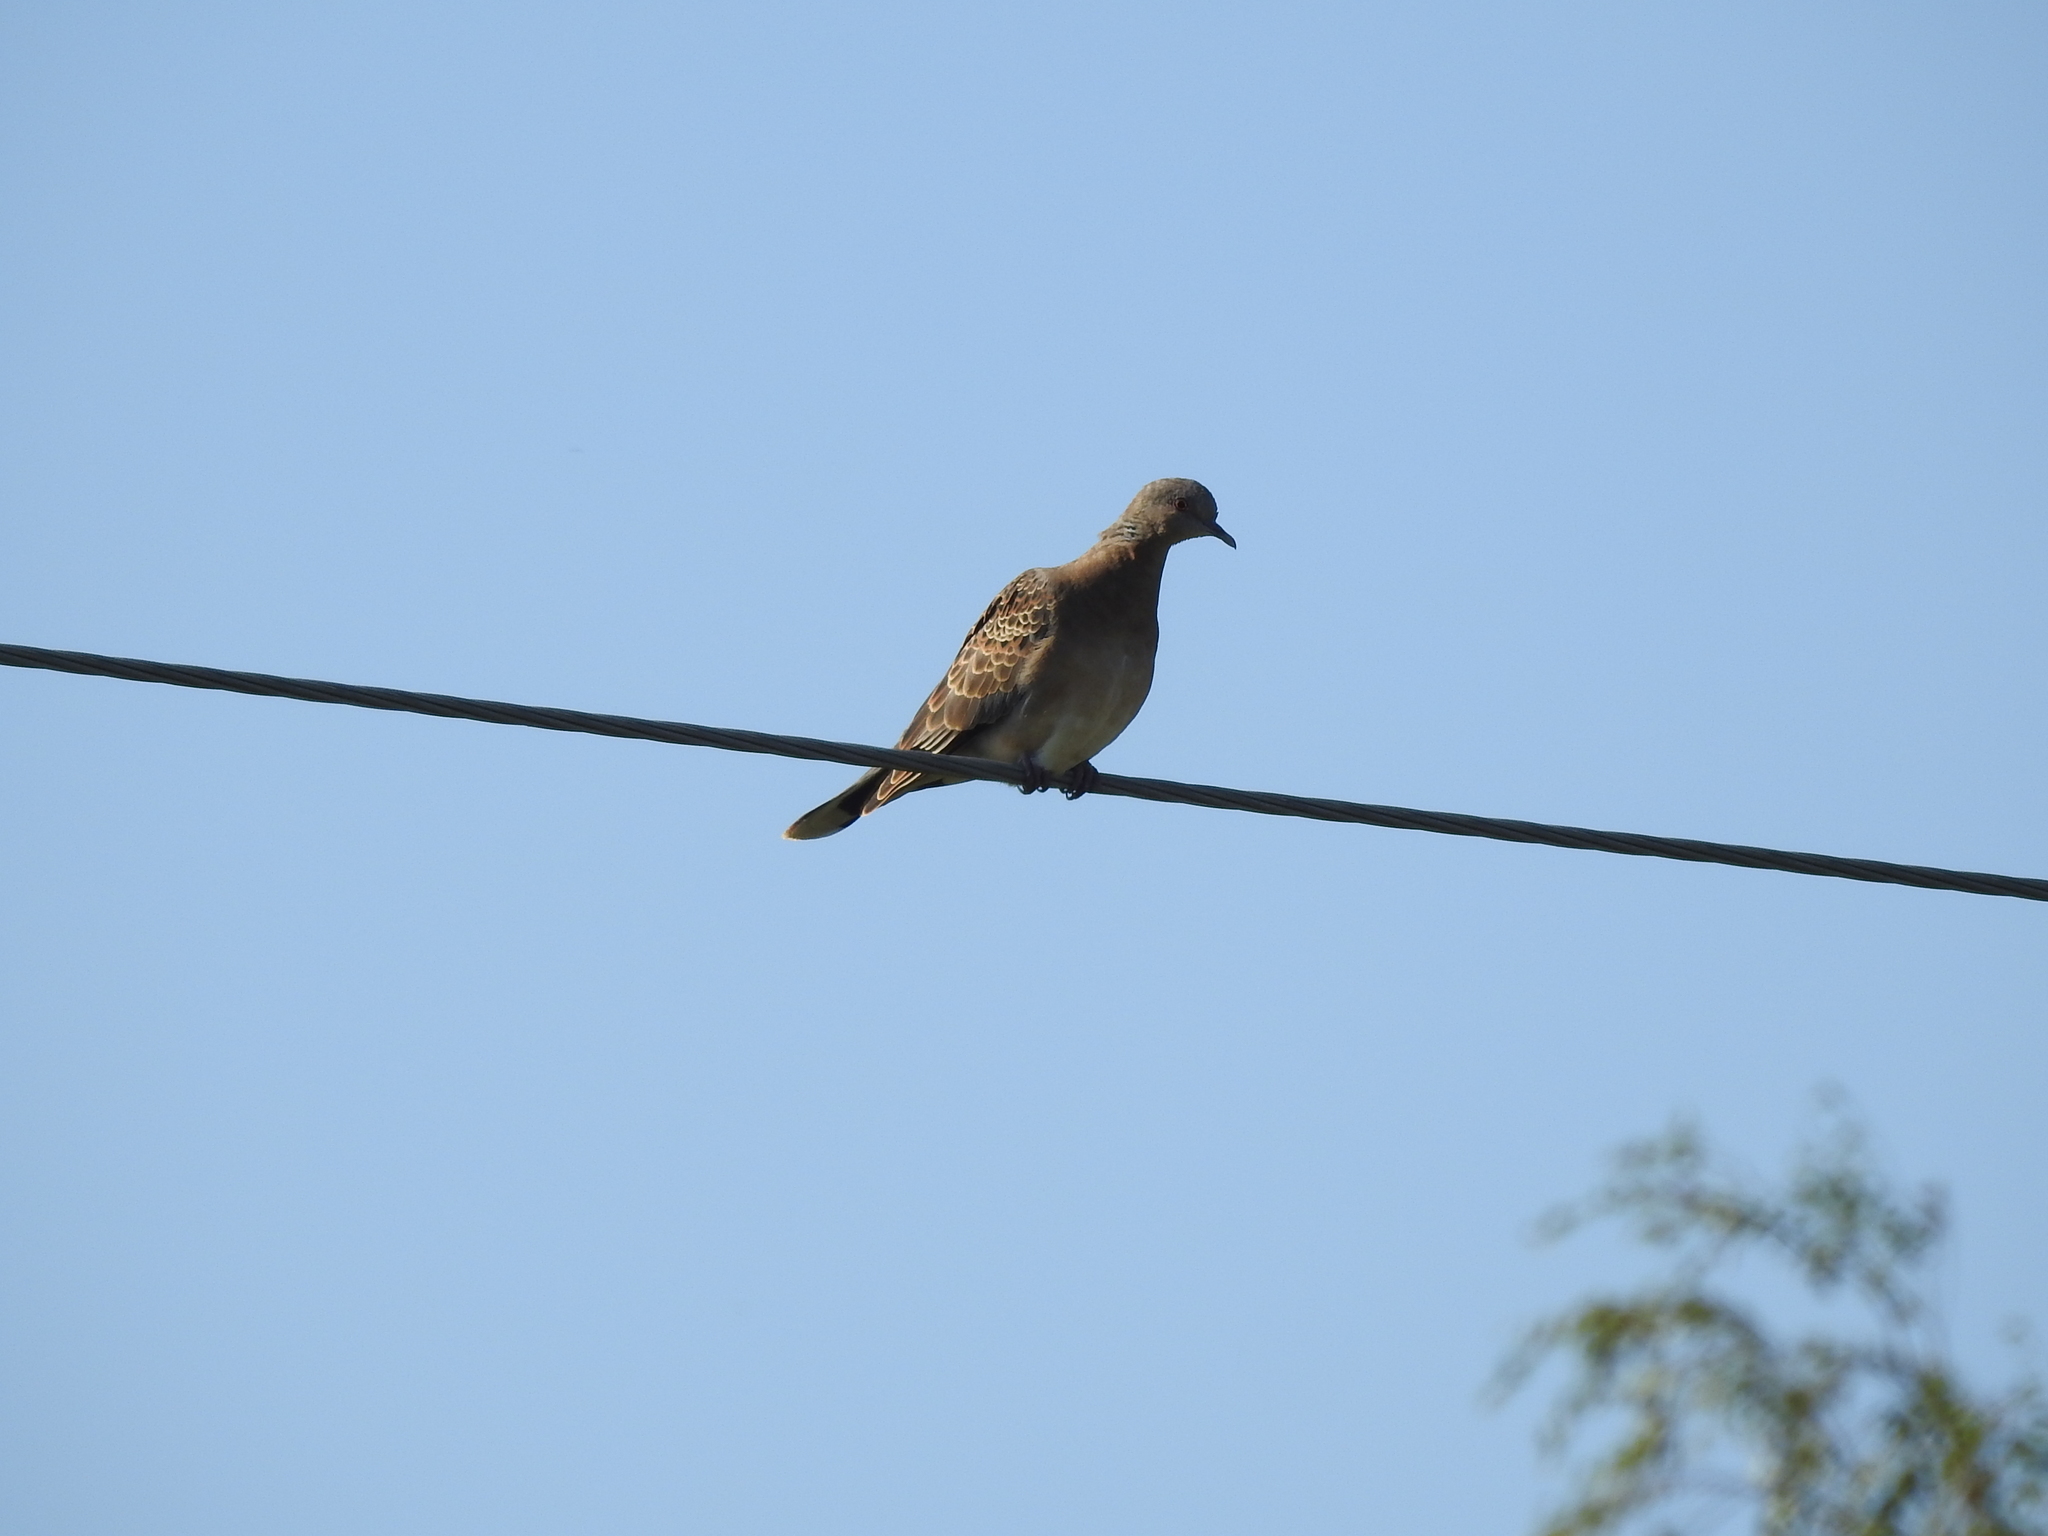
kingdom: Animalia
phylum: Chordata
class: Aves
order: Columbiformes
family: Columbidae
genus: Streptopelia
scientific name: Streptopelia orientalis
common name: Oriental turtle dove
